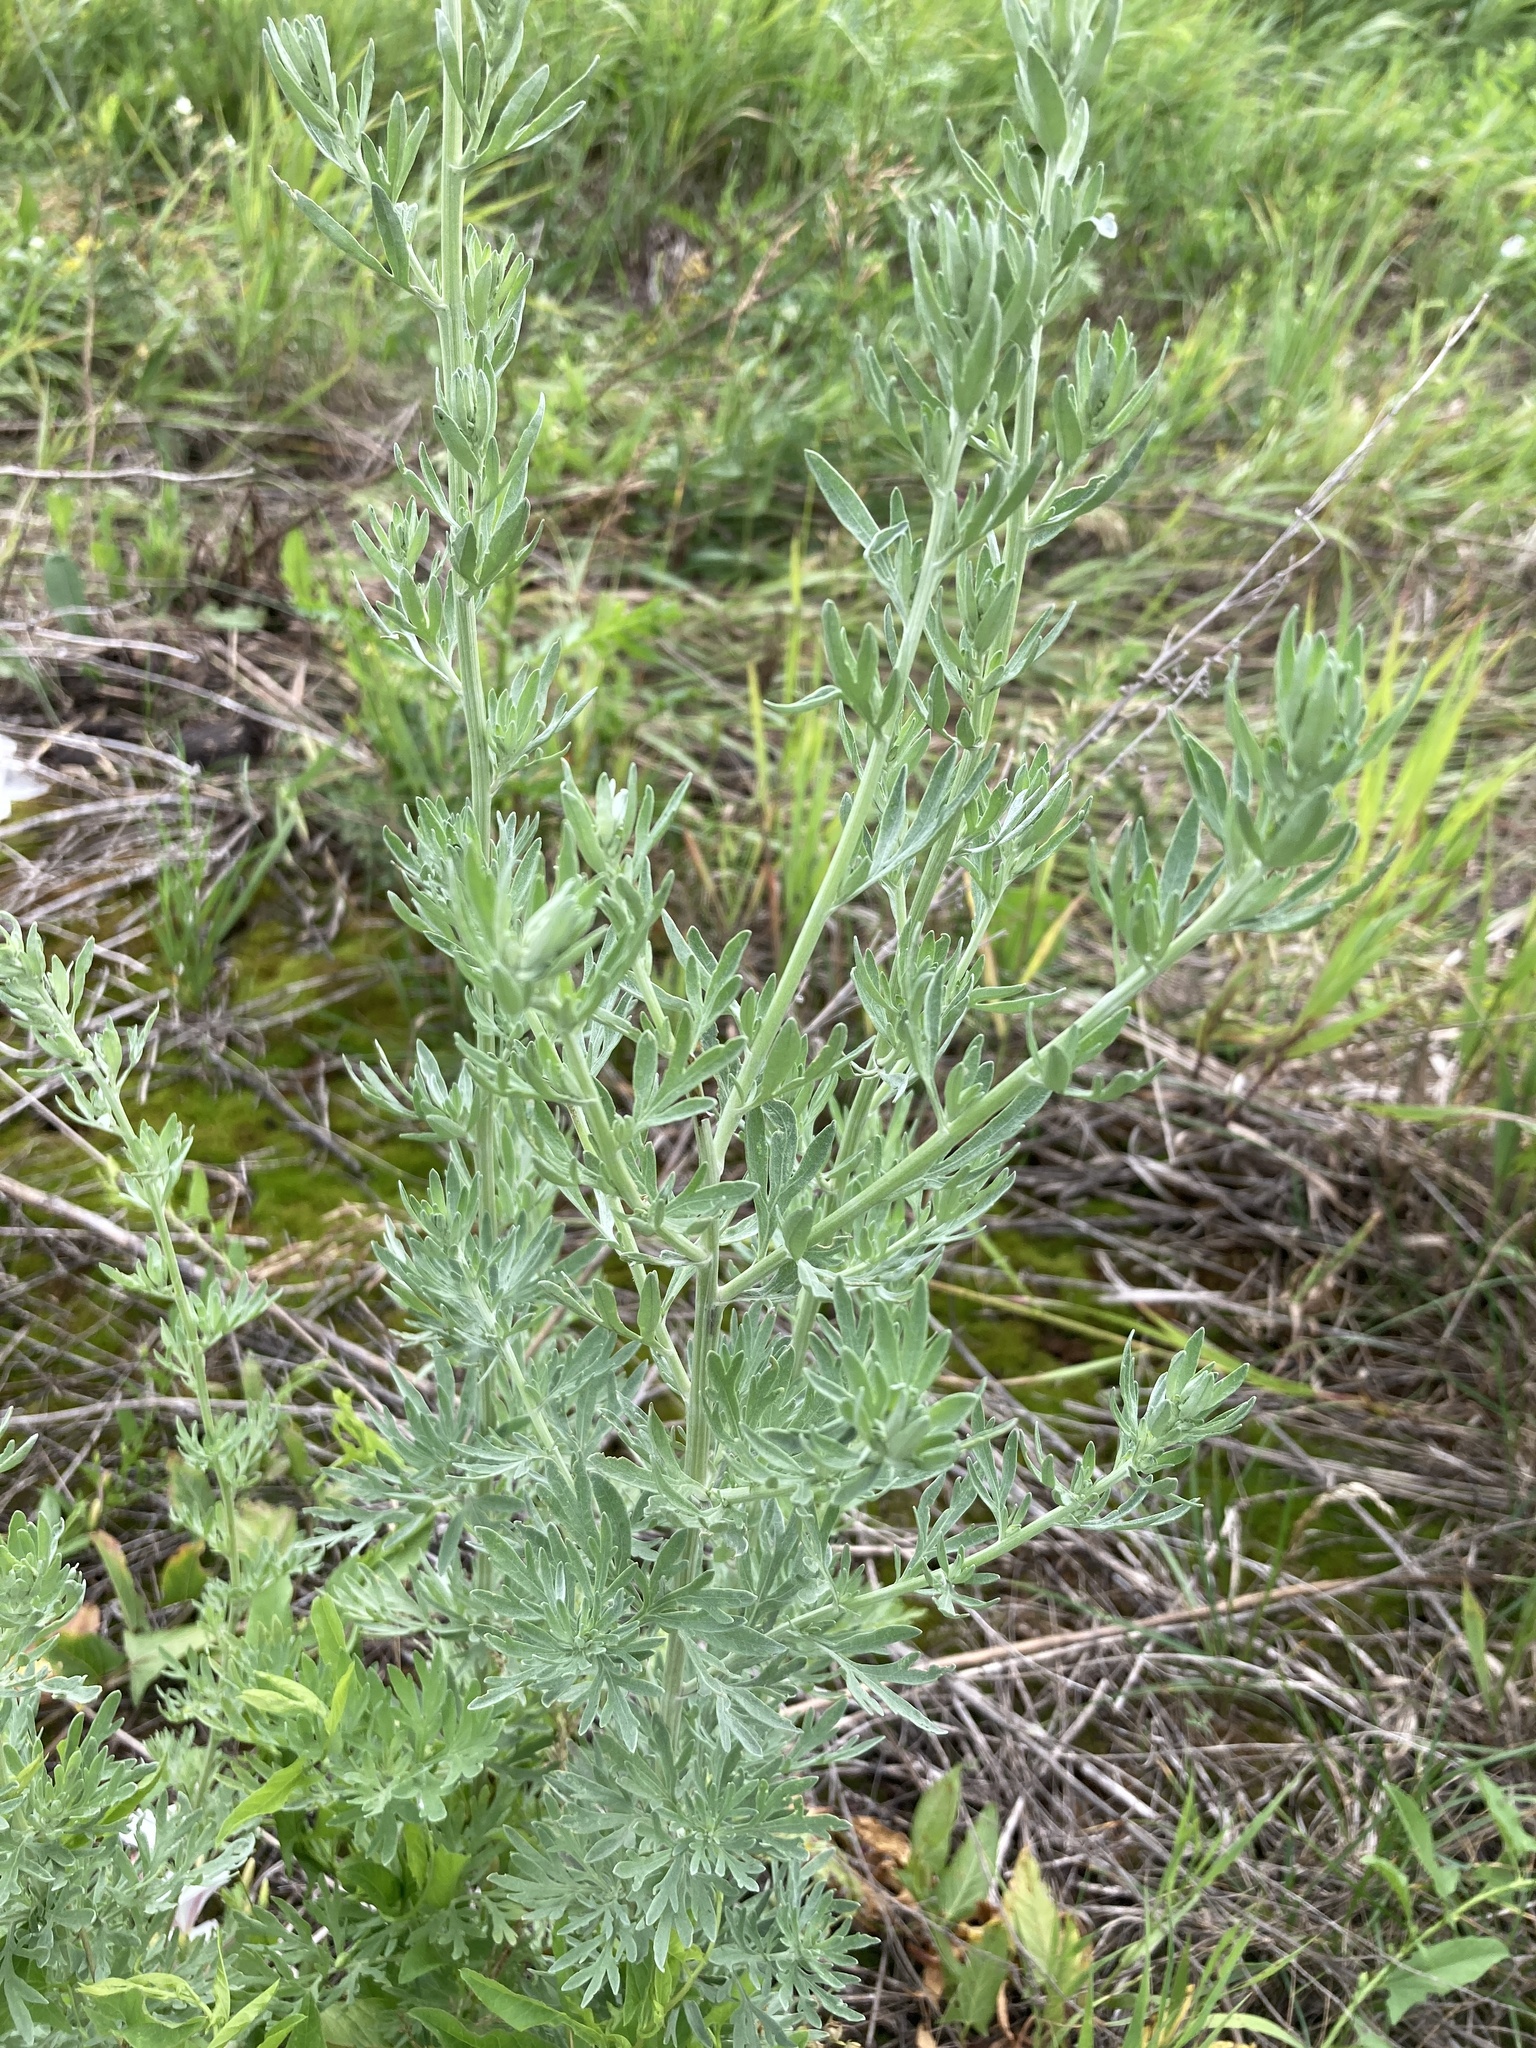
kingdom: Plantae
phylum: Tracheophyta
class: Magnoliopsida
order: Asterales
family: Asteraceae
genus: Artemisia
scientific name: Artemisia absinthium
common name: Wormwood
